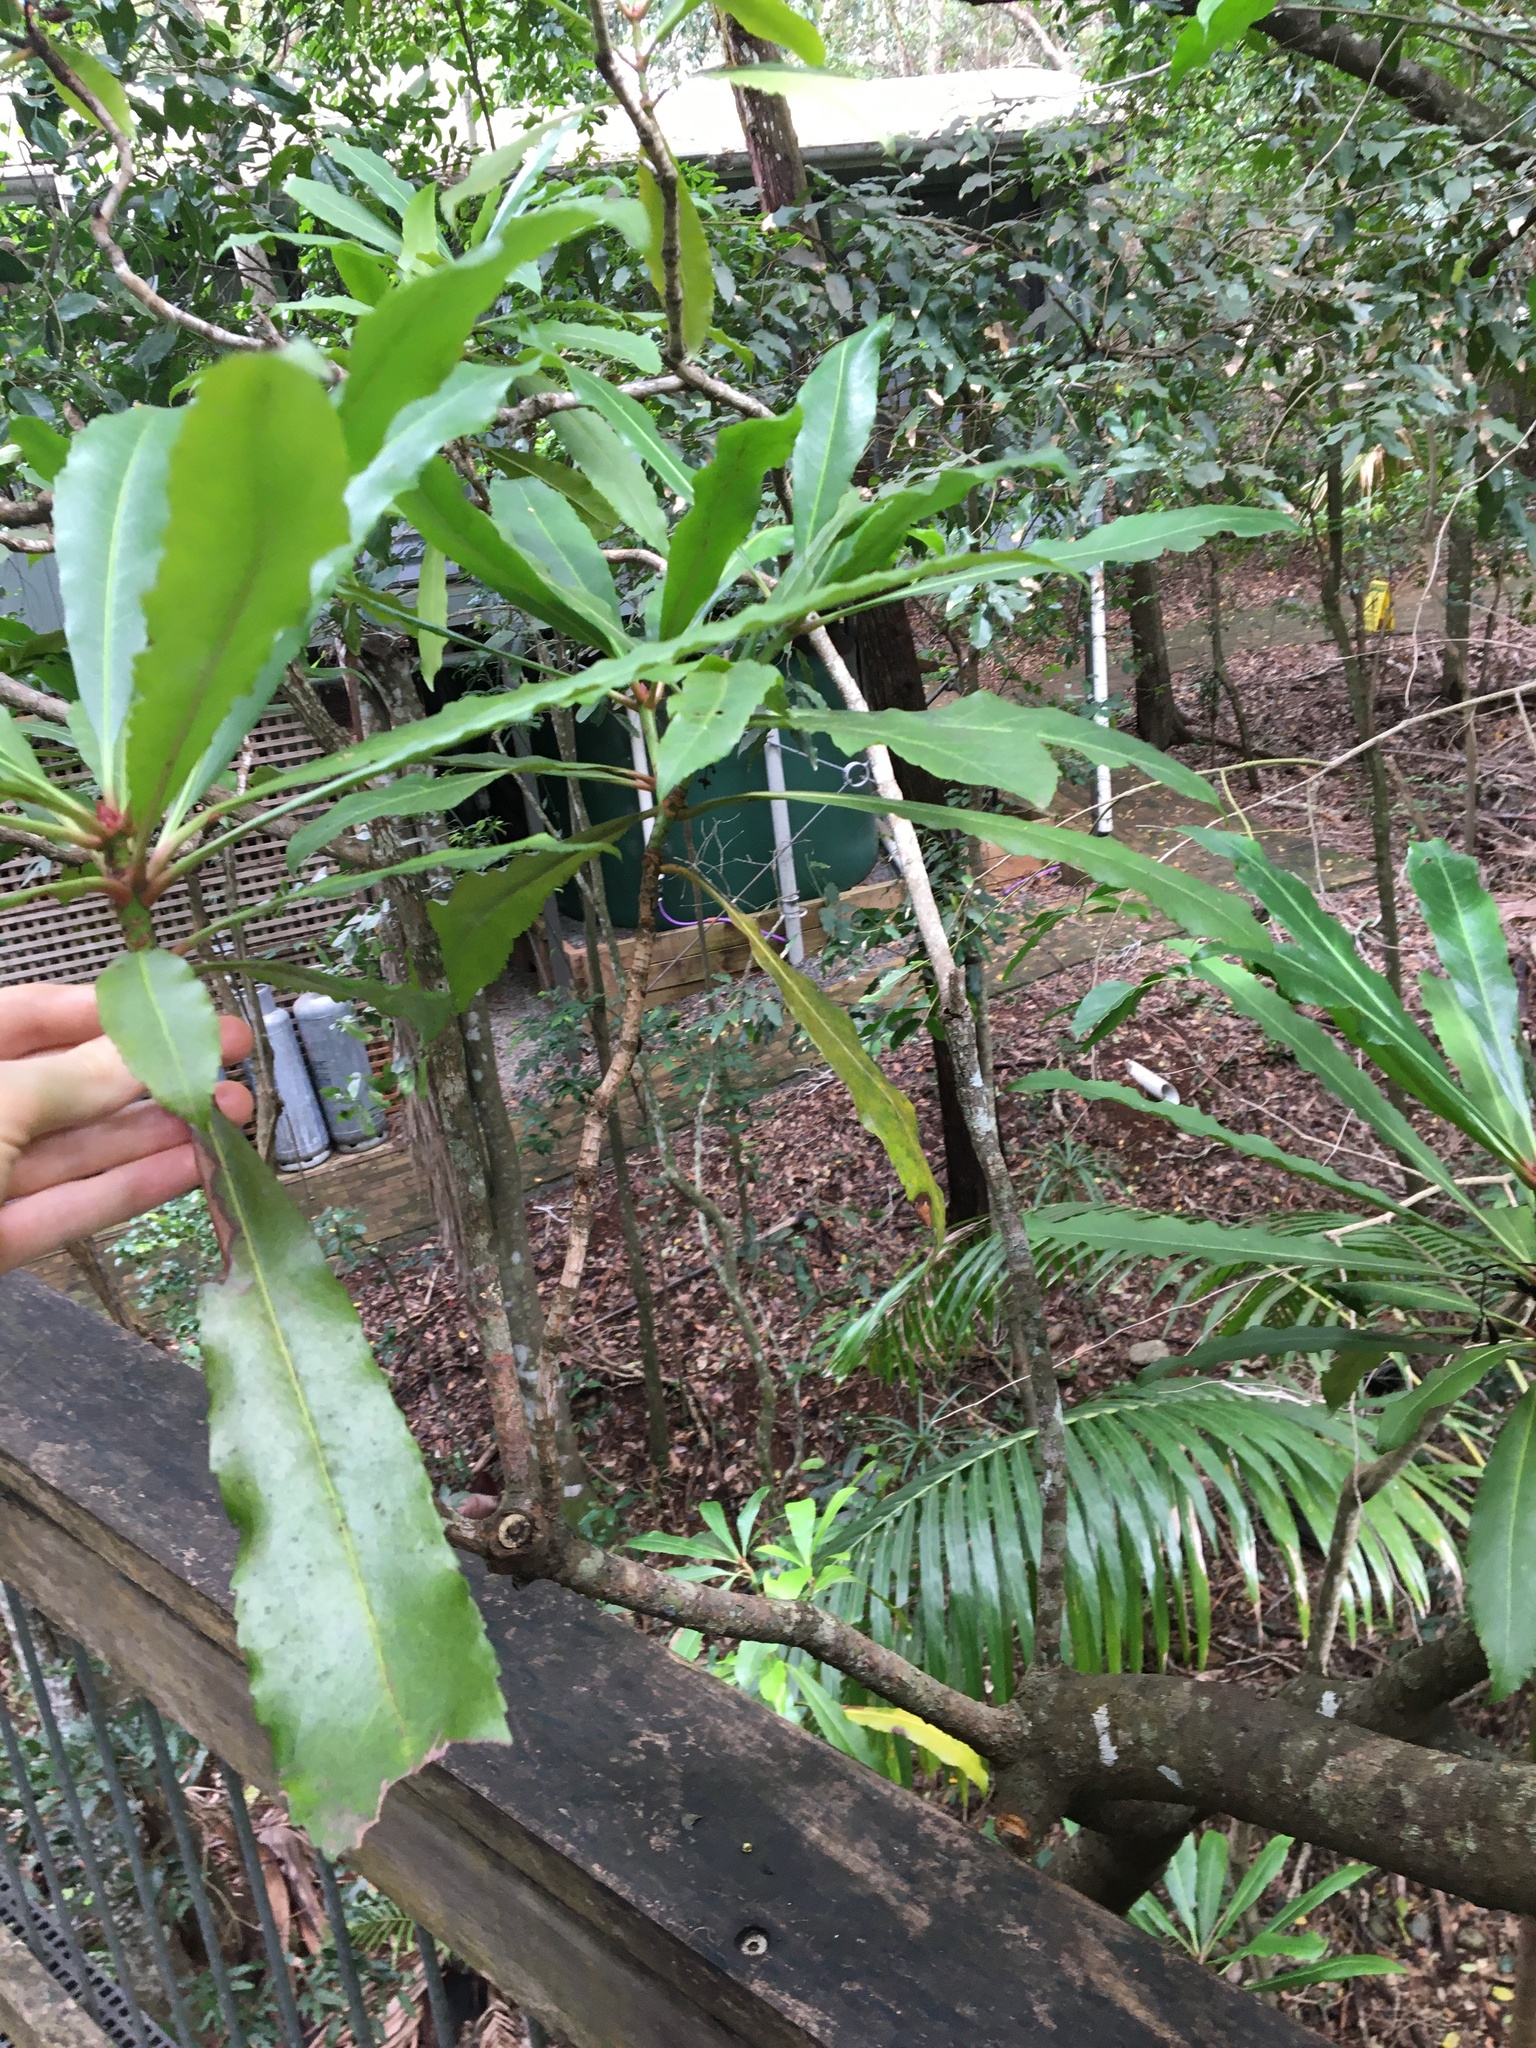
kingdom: Plantae
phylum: Tracheophyta
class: Magnoliopsida
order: Escalloniales
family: Escalloniaceae
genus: Anopterus
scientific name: Anopterus macleayanus
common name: Tasmanian-laurel
